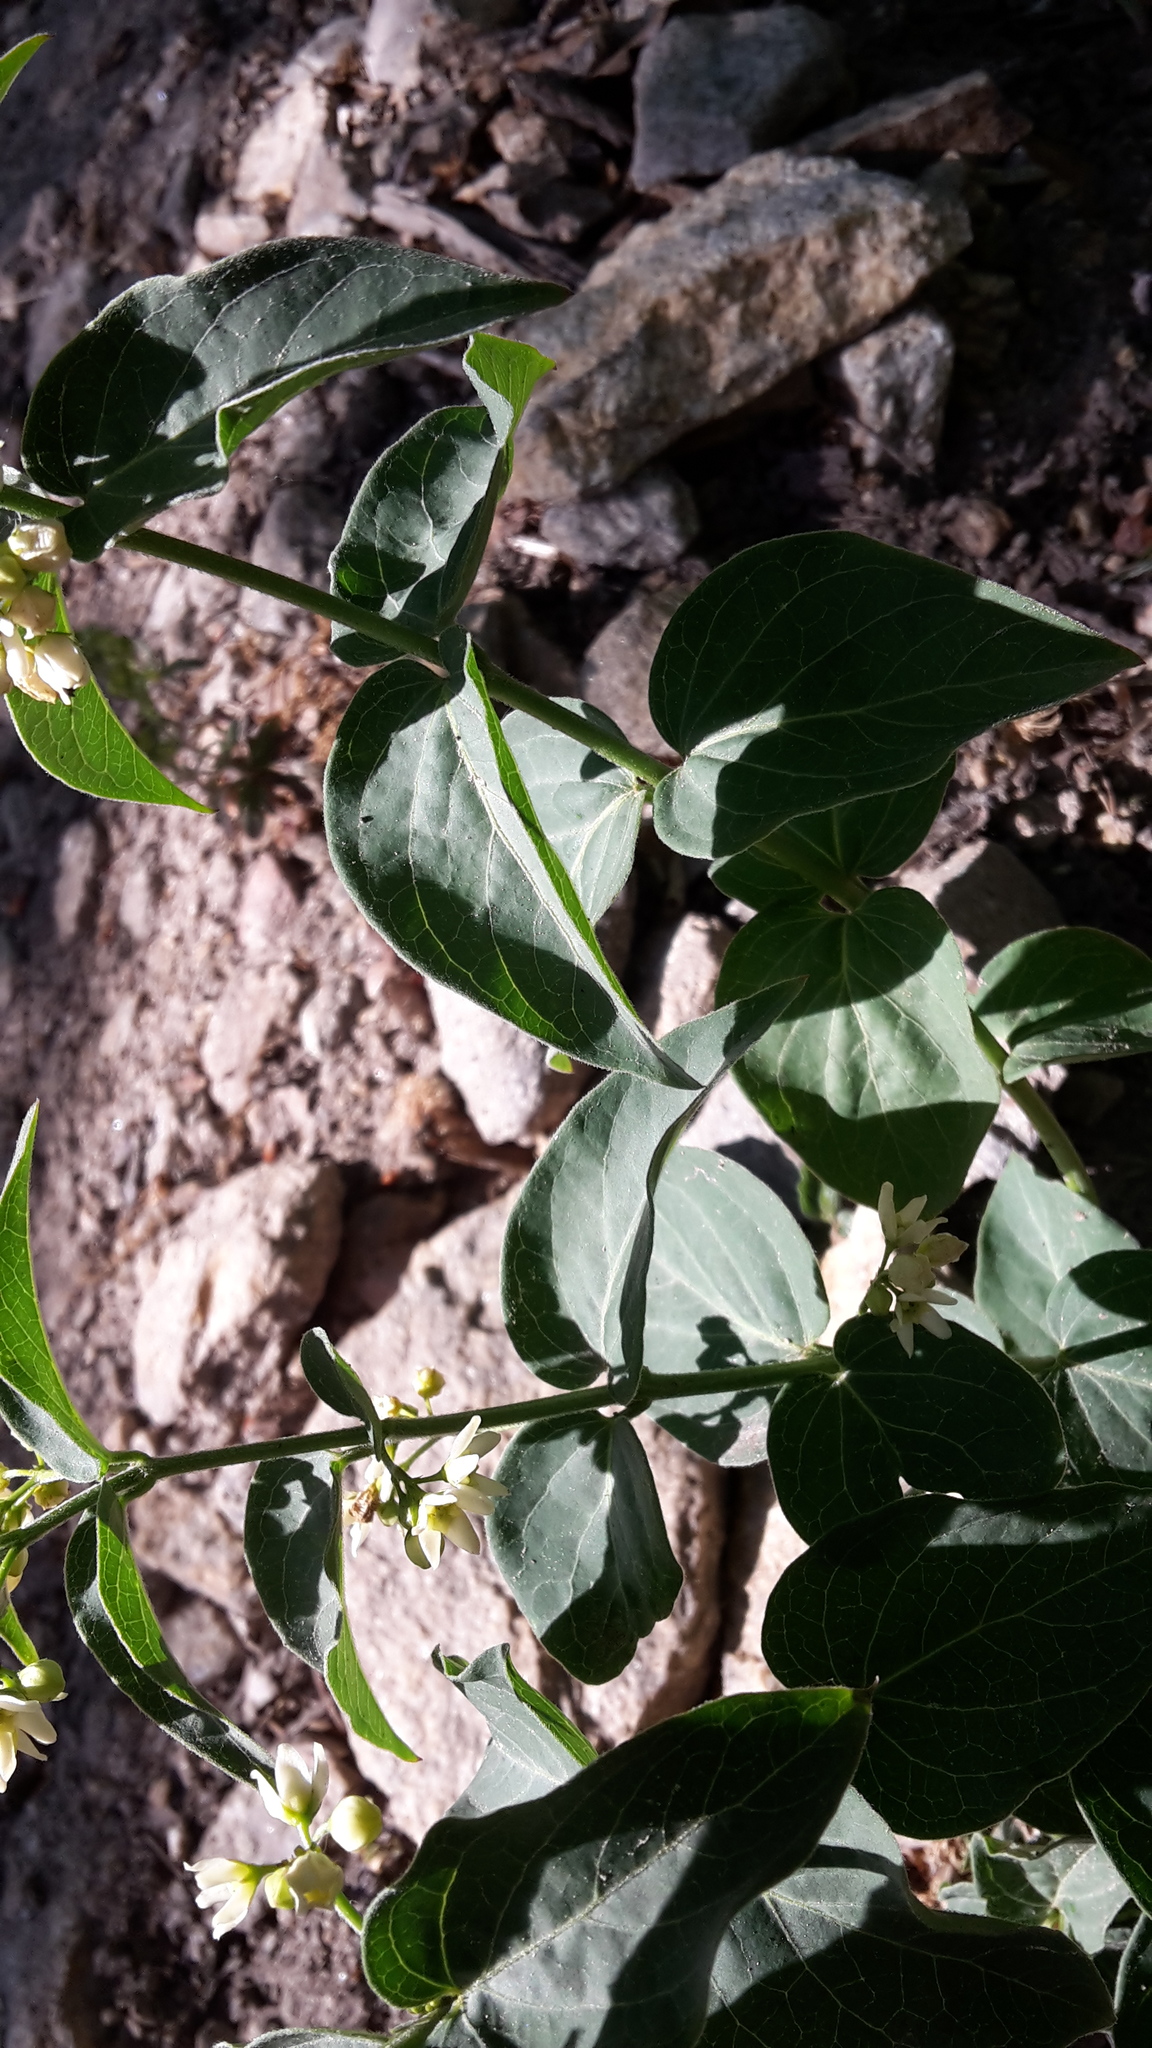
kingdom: Plantae
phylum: Tracheophyta
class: Magnoliopsida
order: Gentianales
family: Apocynaceae
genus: Vincetoxicum
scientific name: Vincetoxicum hirundinaria
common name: White swallowwort
